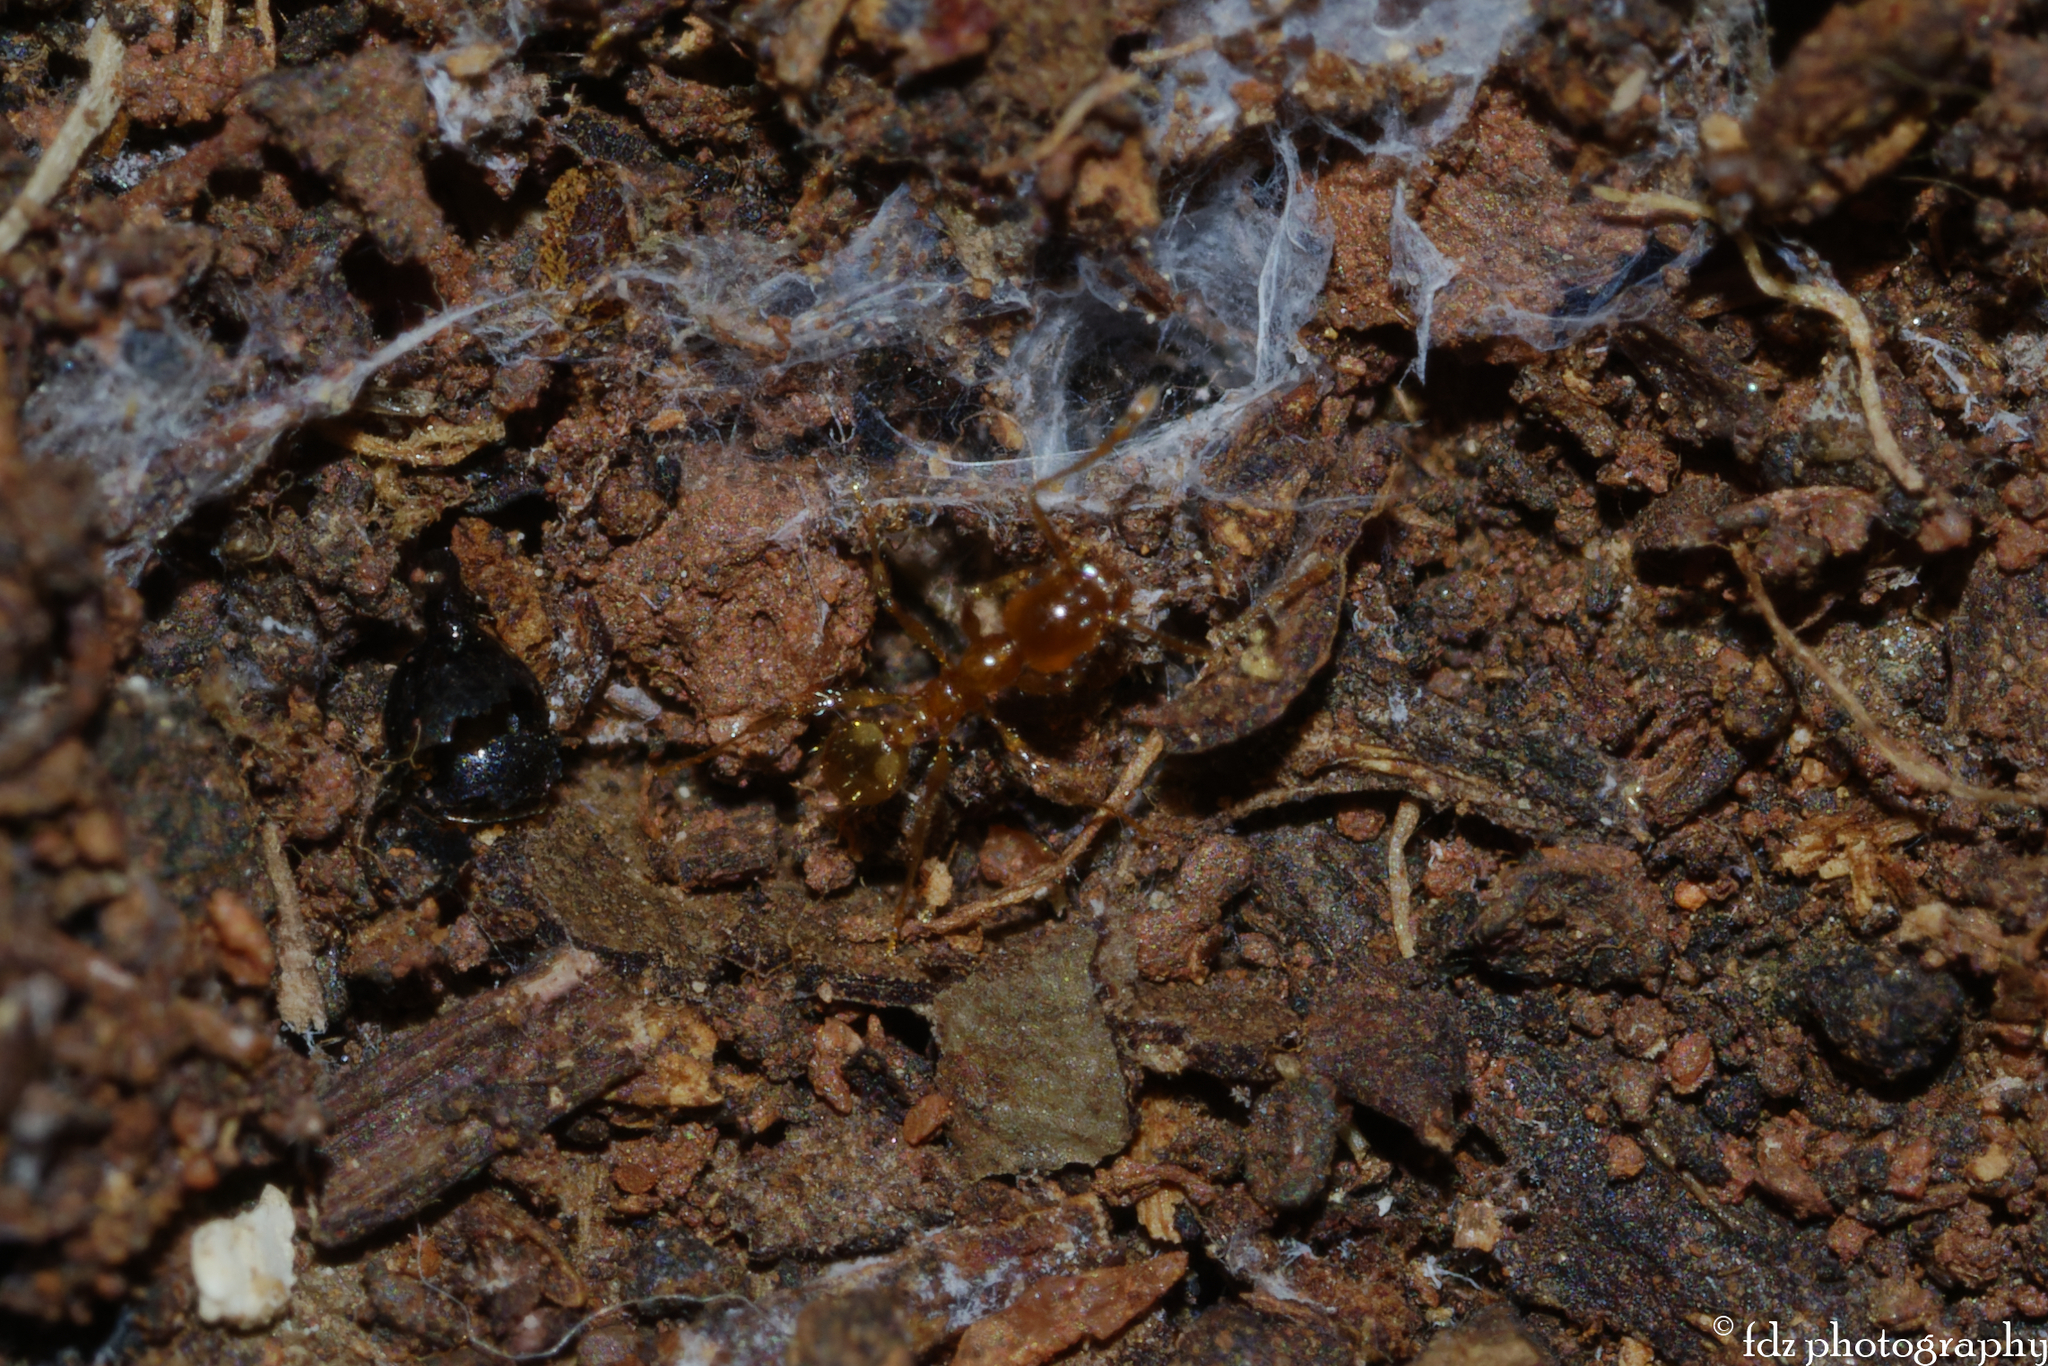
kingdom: Animalia
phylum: Arthropoda
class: Insecta
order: Hymenoptera
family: Formicidae
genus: Pheidole
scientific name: Pheidole pallidula
